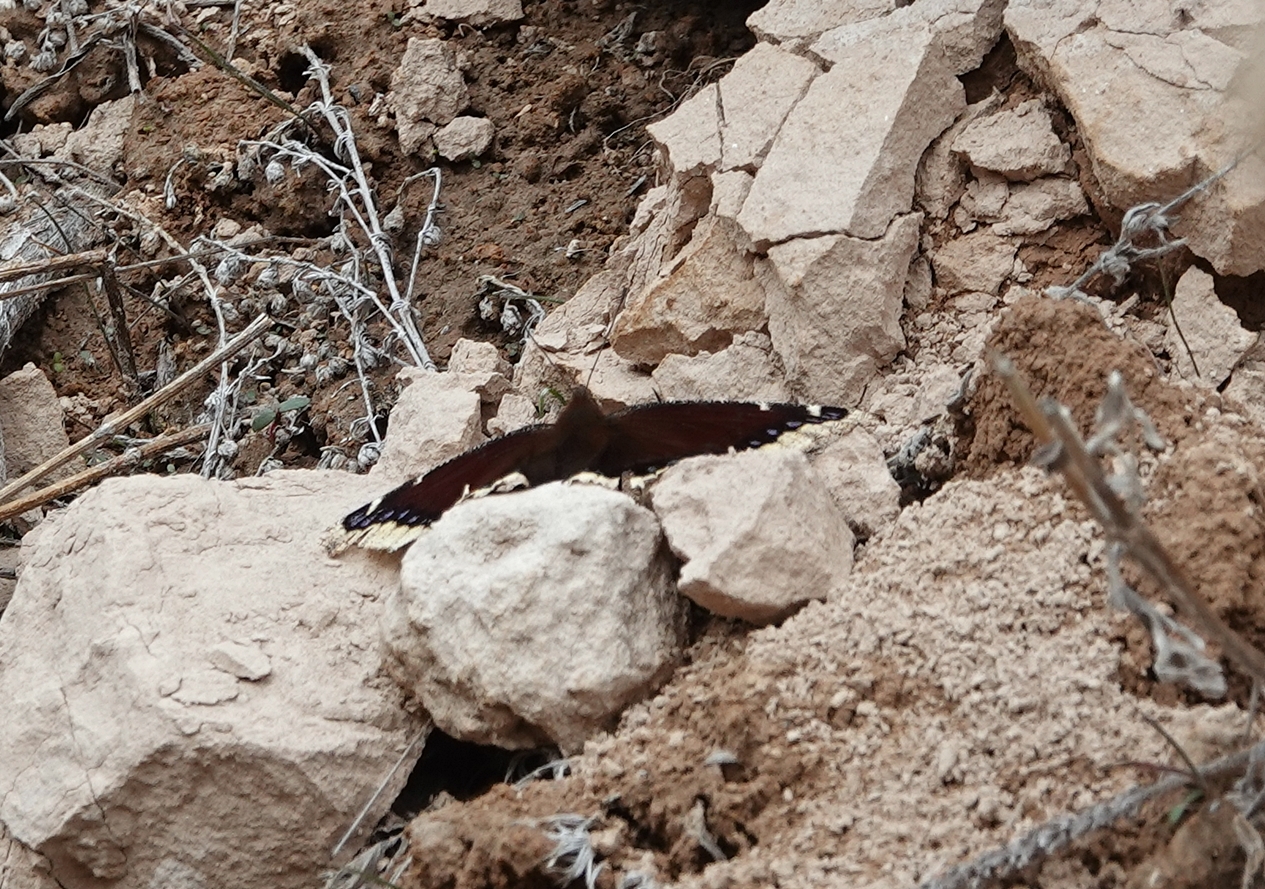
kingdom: Animalia
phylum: Arthropoda
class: Insecta
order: Lepidoptera
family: Nymphalidae
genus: Nymphalis
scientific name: Nymphalis antiopa
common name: Camberwell beauty
